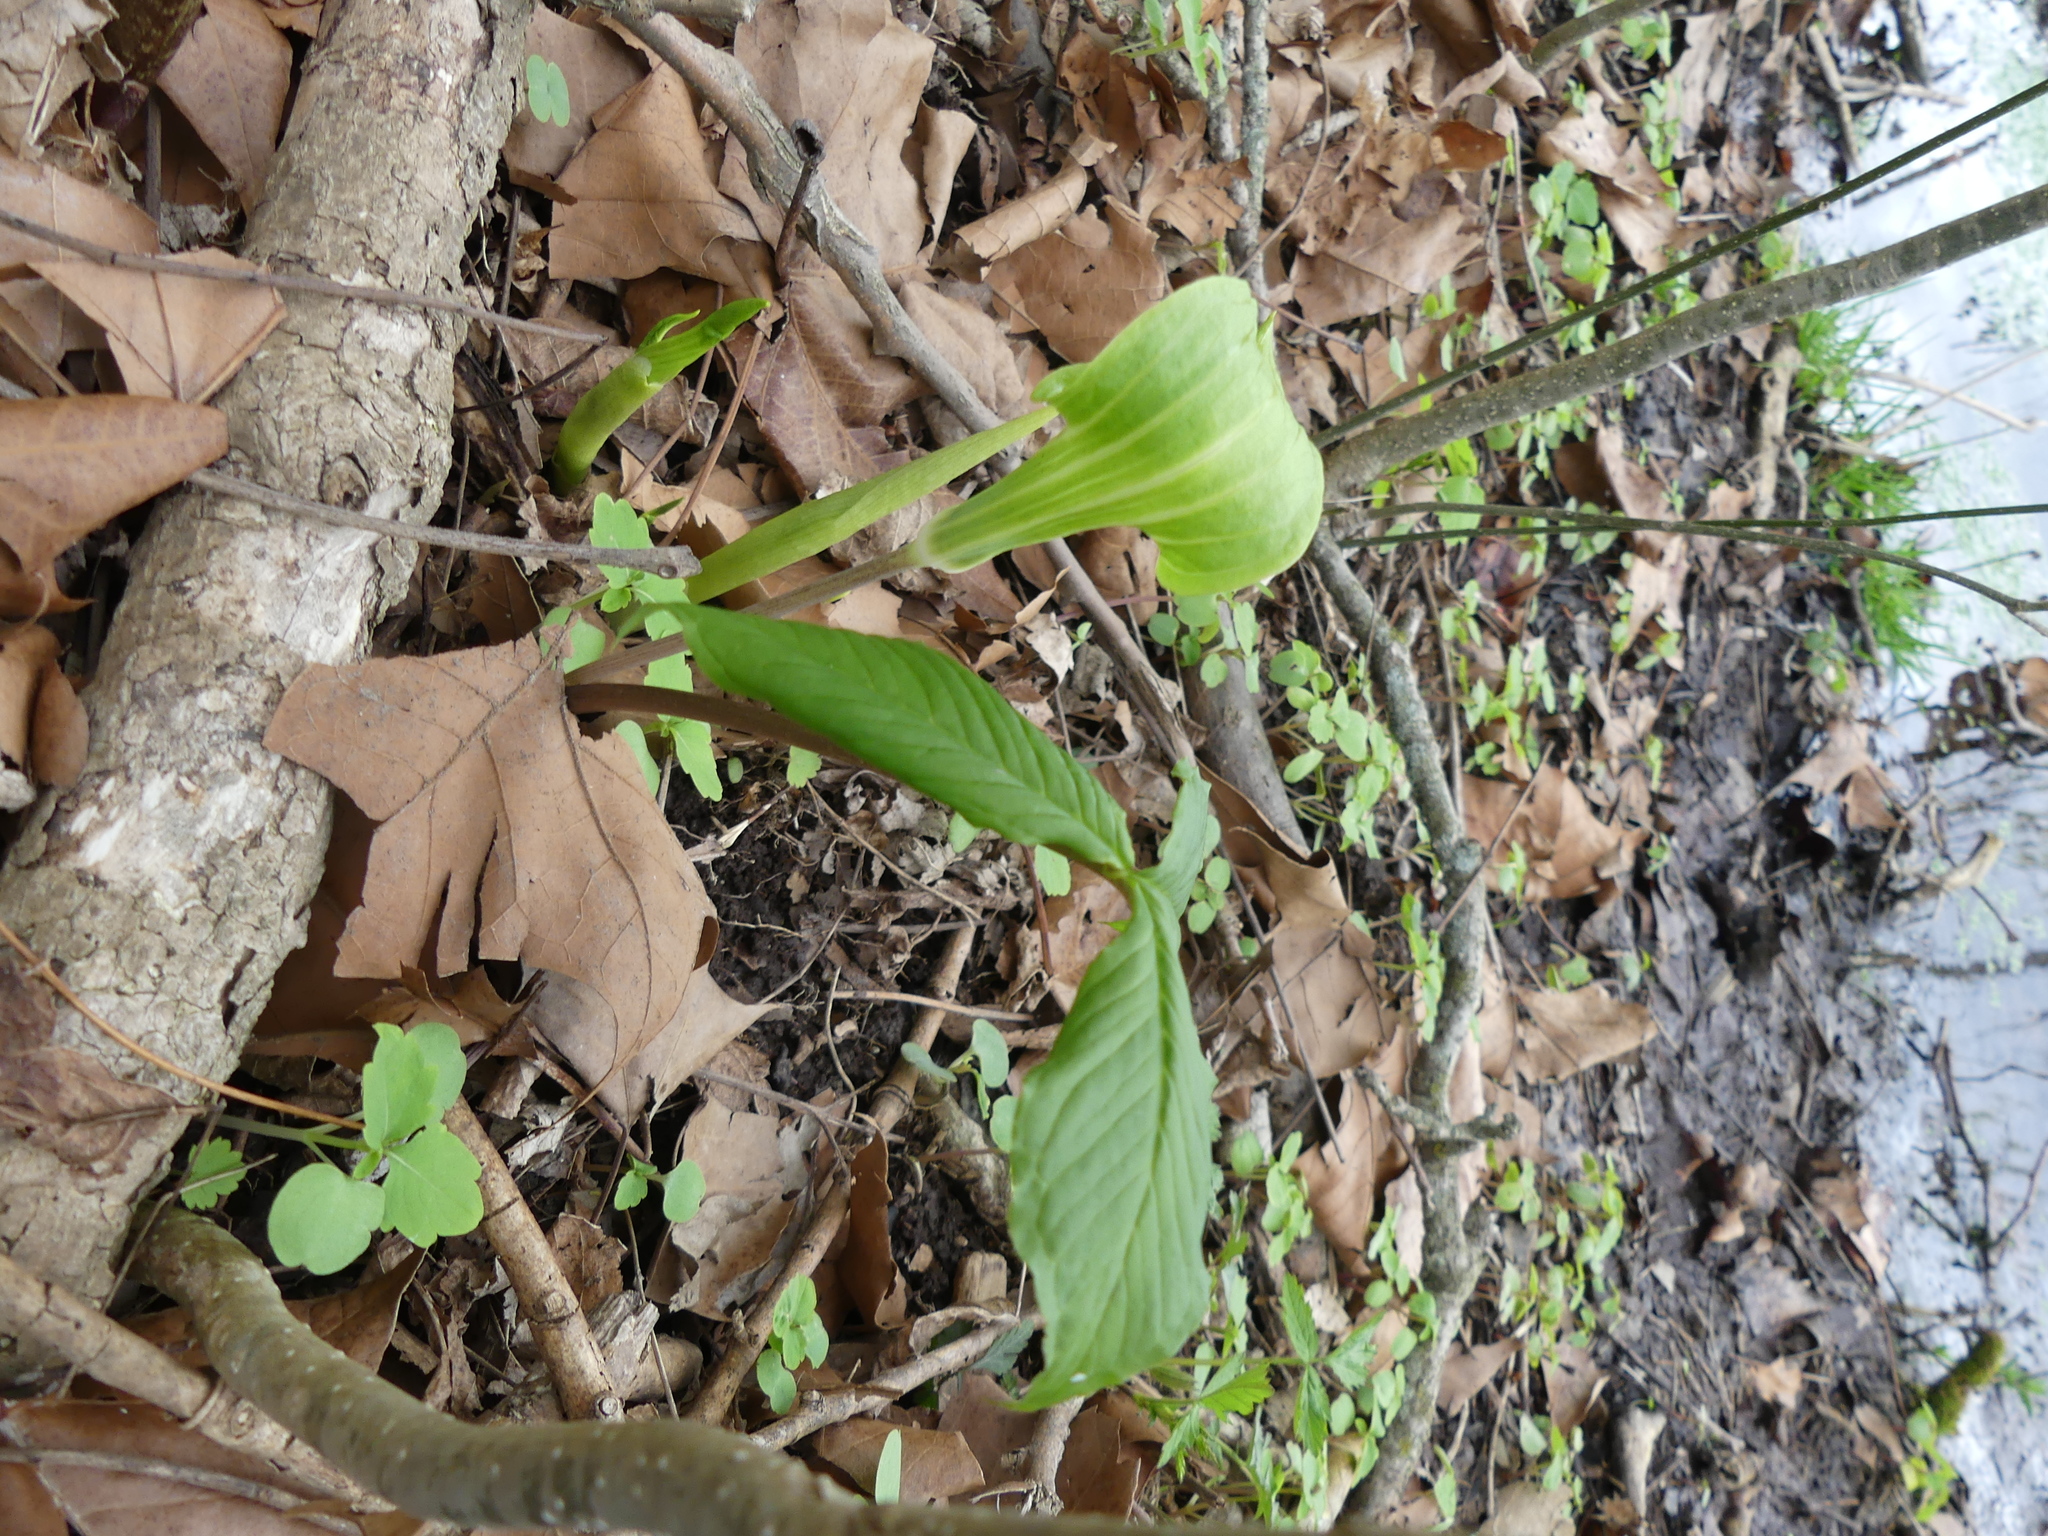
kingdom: Plantae
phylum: Tracheophyta
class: Liliopsida
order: Alismatales
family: Araceae
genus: Arisaema
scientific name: Arisaema triphyllum
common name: Jack-in-the-pulpit
